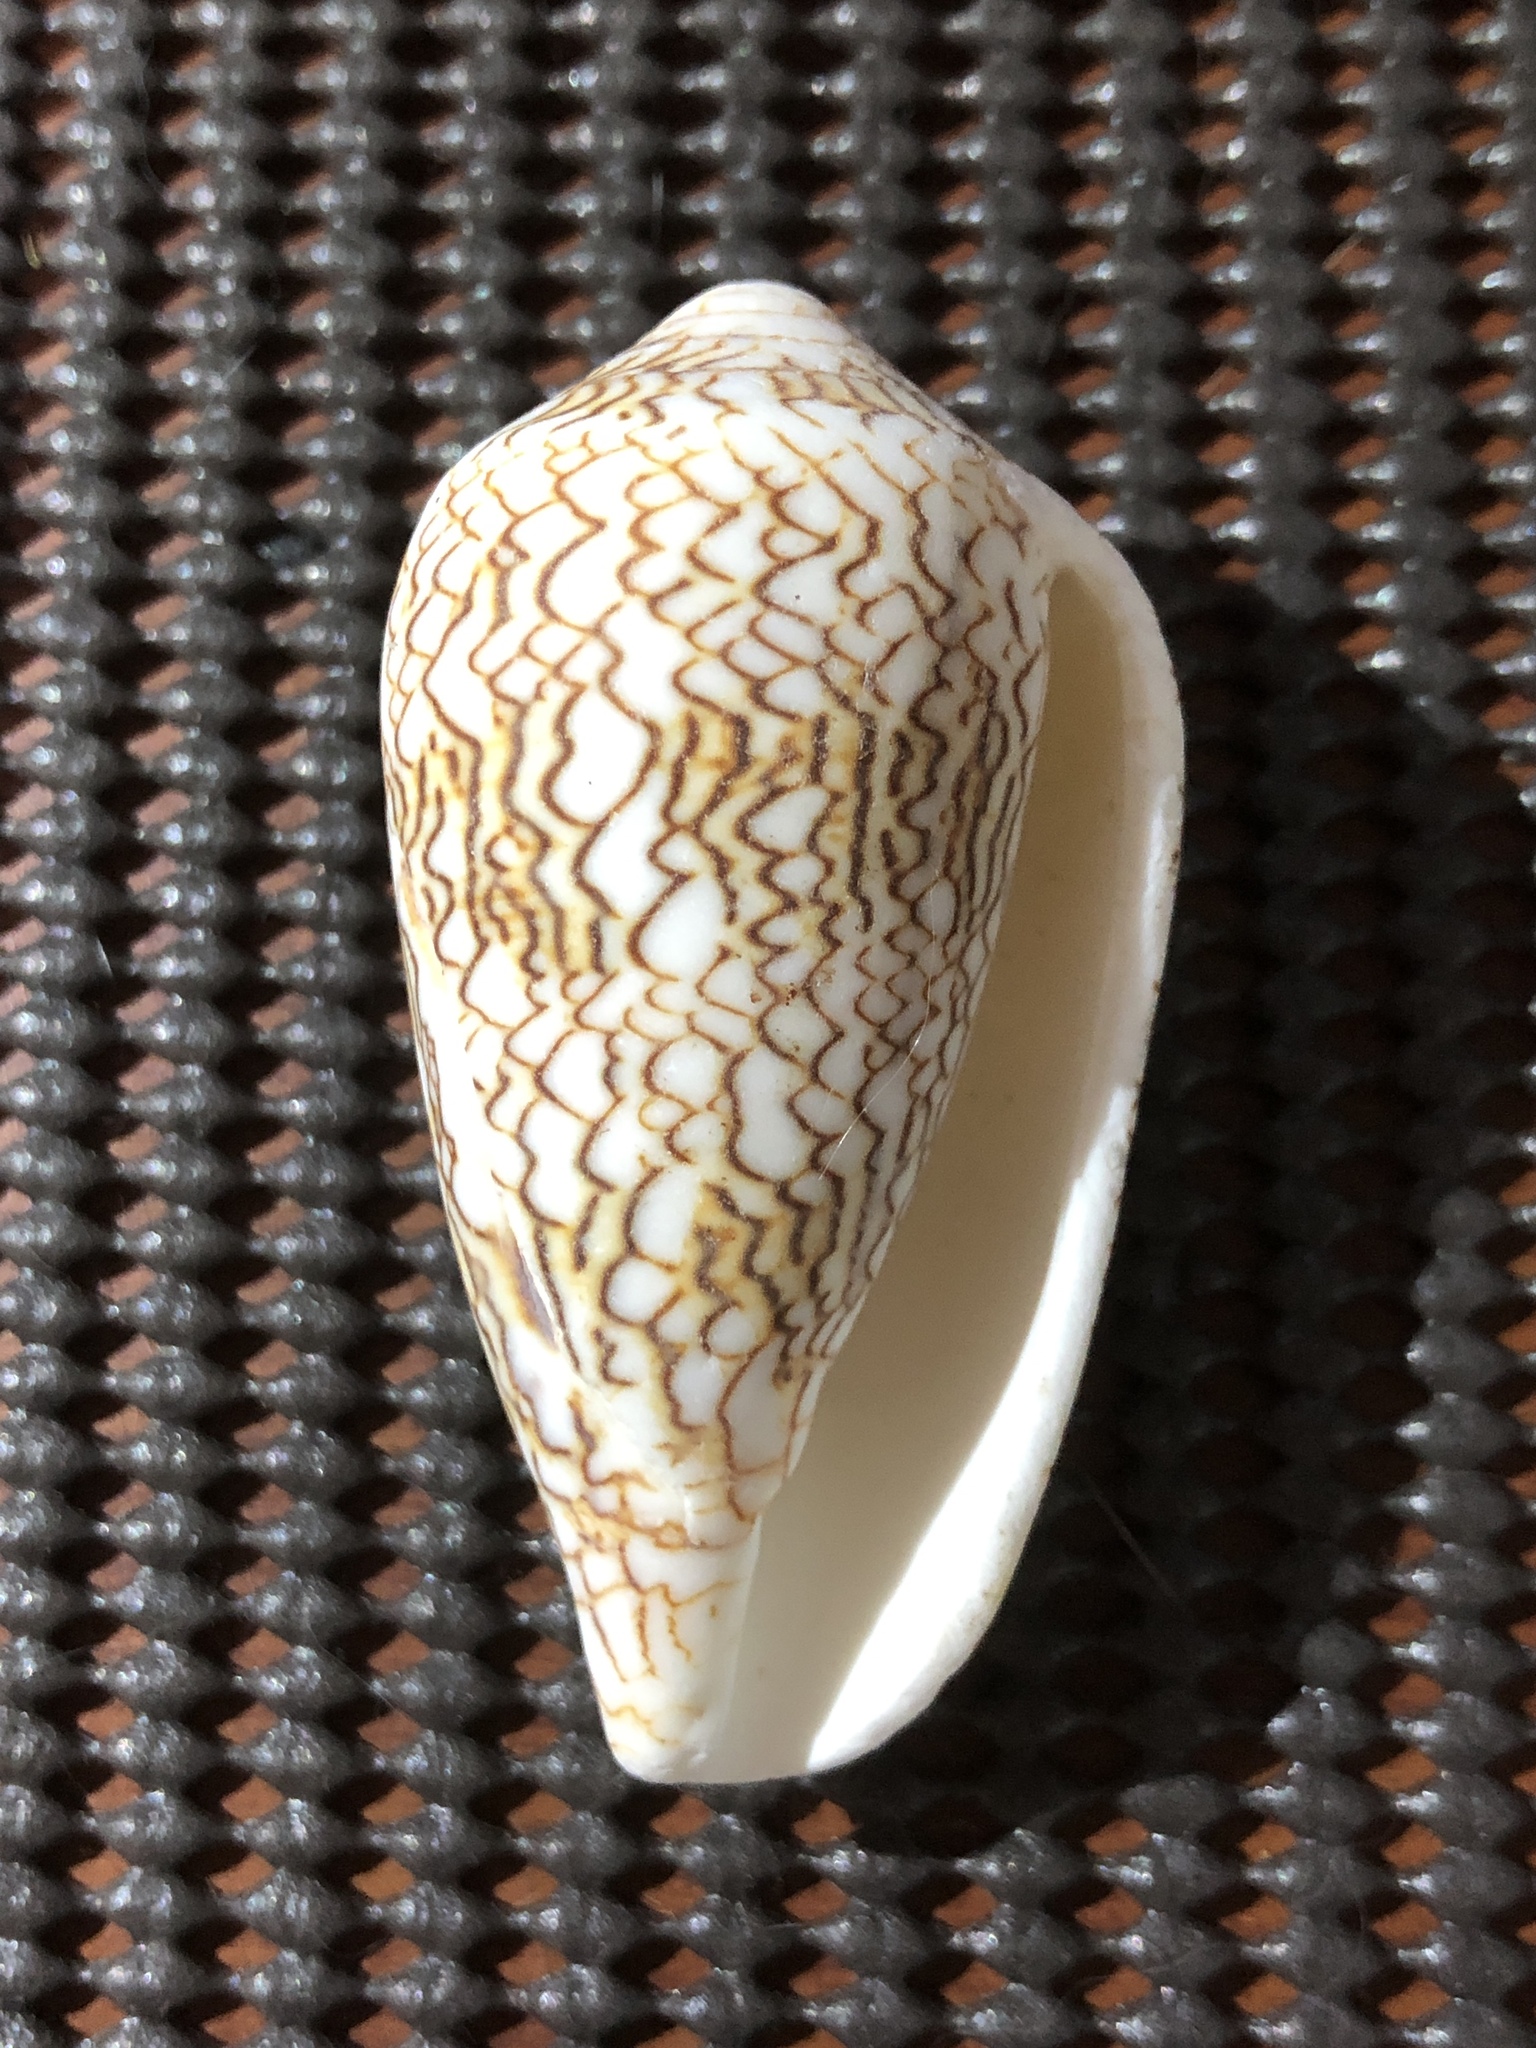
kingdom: Animalia
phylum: Mollusca
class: Gastropoda
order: Neogastropoda
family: Conidae
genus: Conus
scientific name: Conus textile
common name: Cloth-of-gold cone
